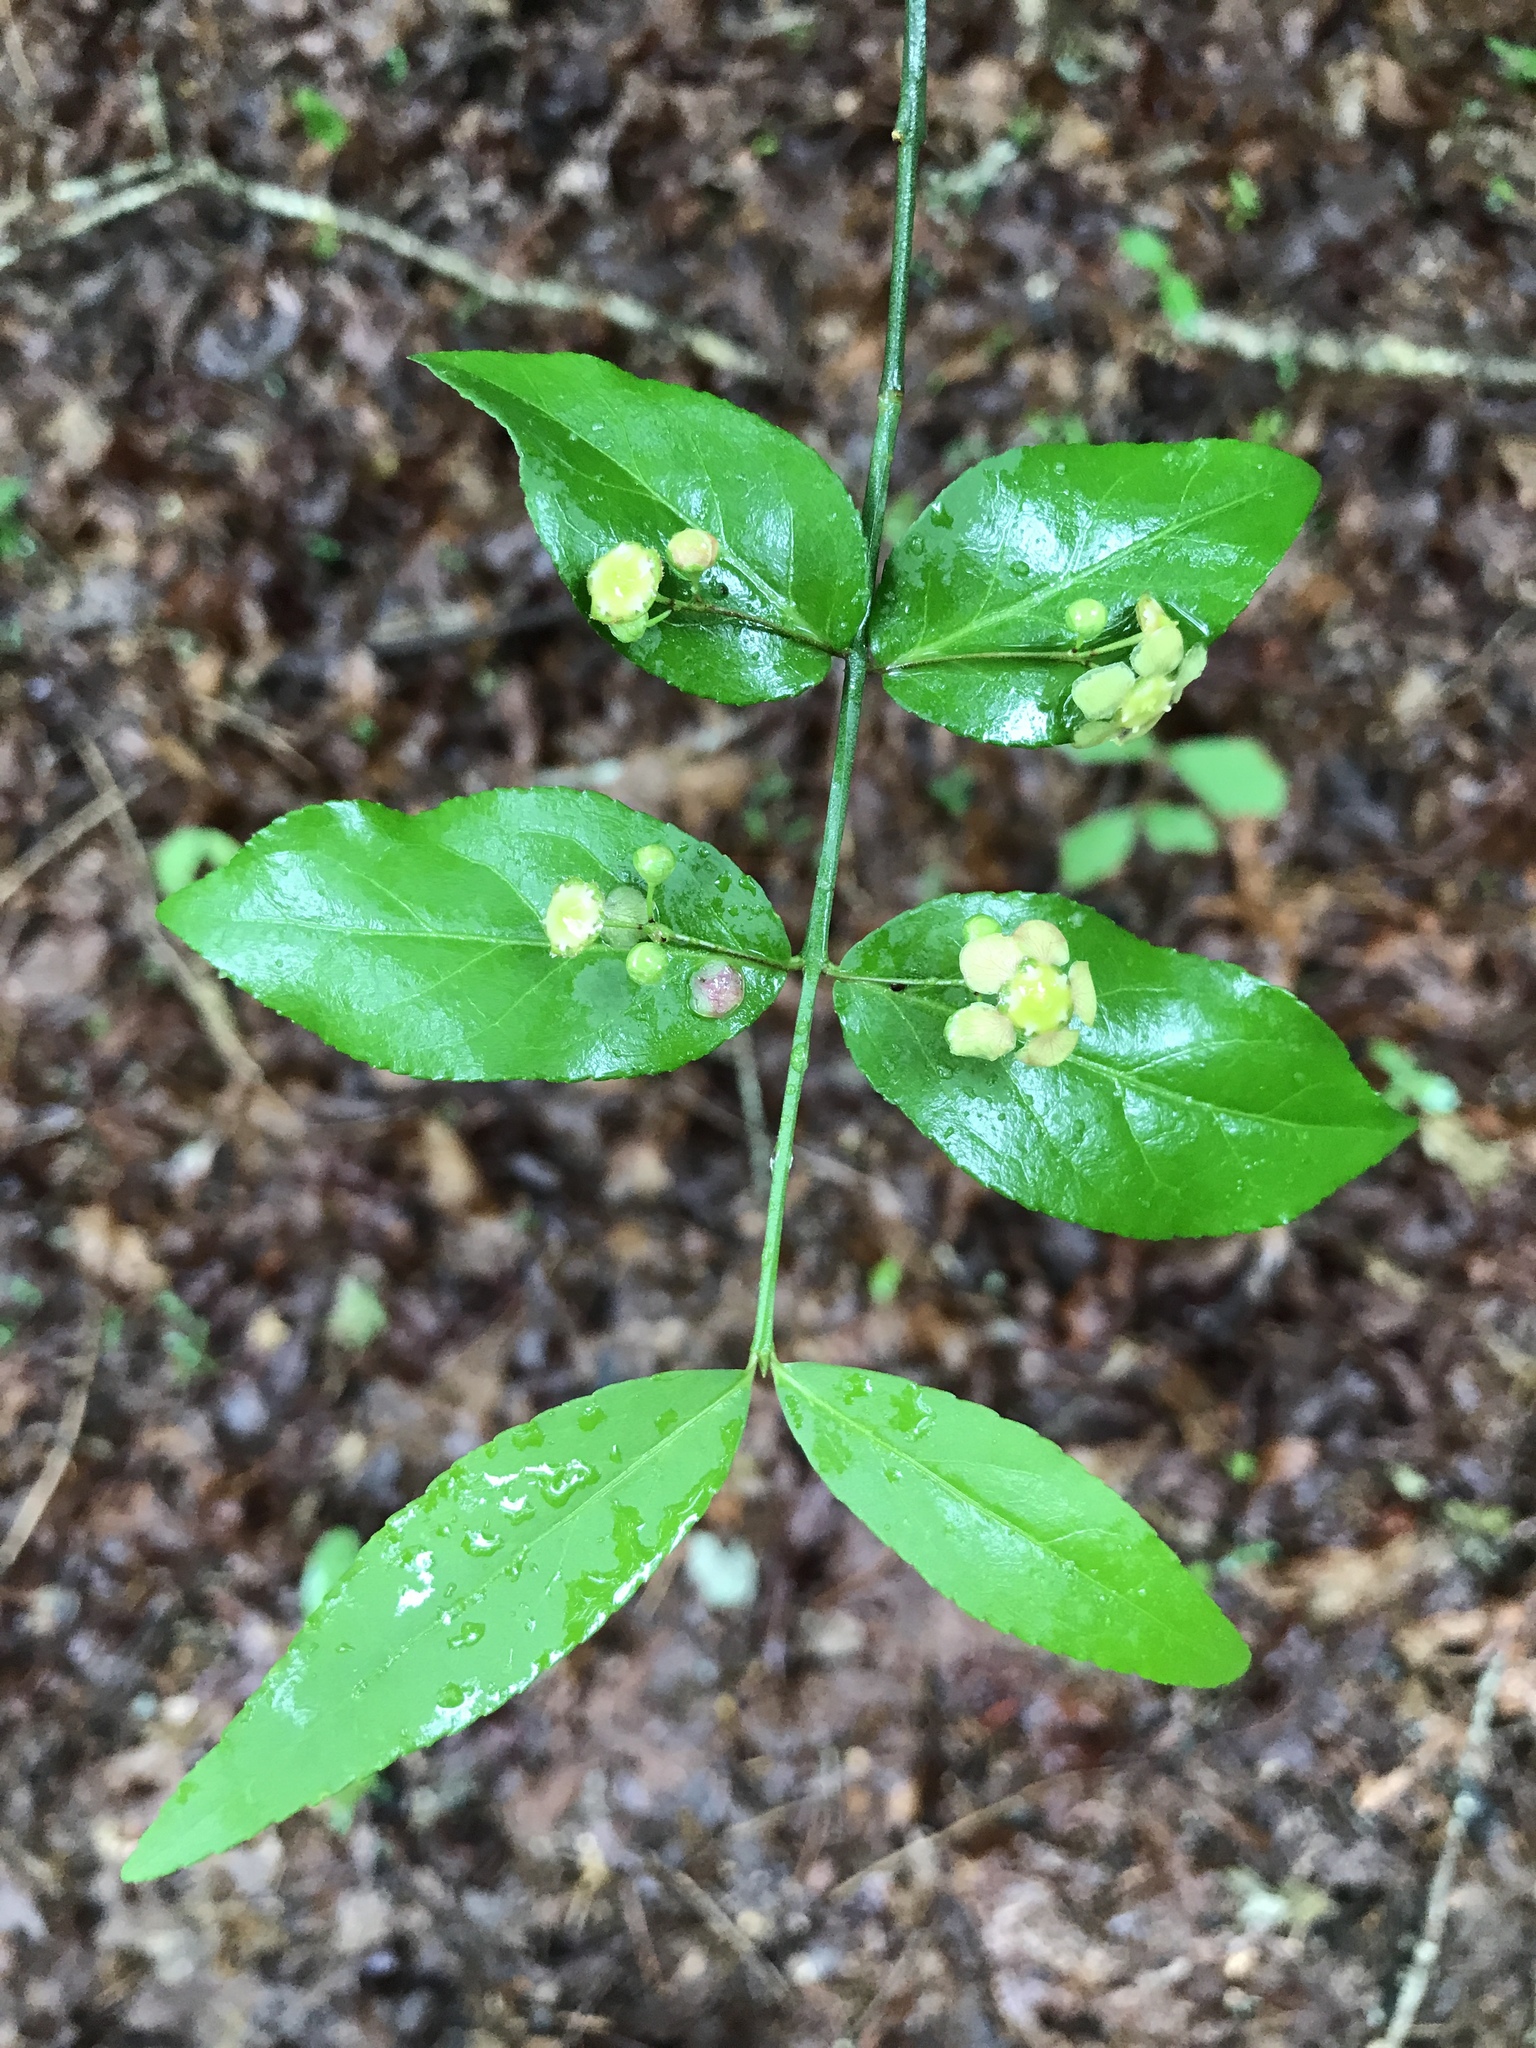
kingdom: Plantae
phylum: Tracheophyta
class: Magnoliopsida
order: Celastrales
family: Celastraceae
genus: Euonymus
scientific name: Euonymus americanus
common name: Bursting-heart
